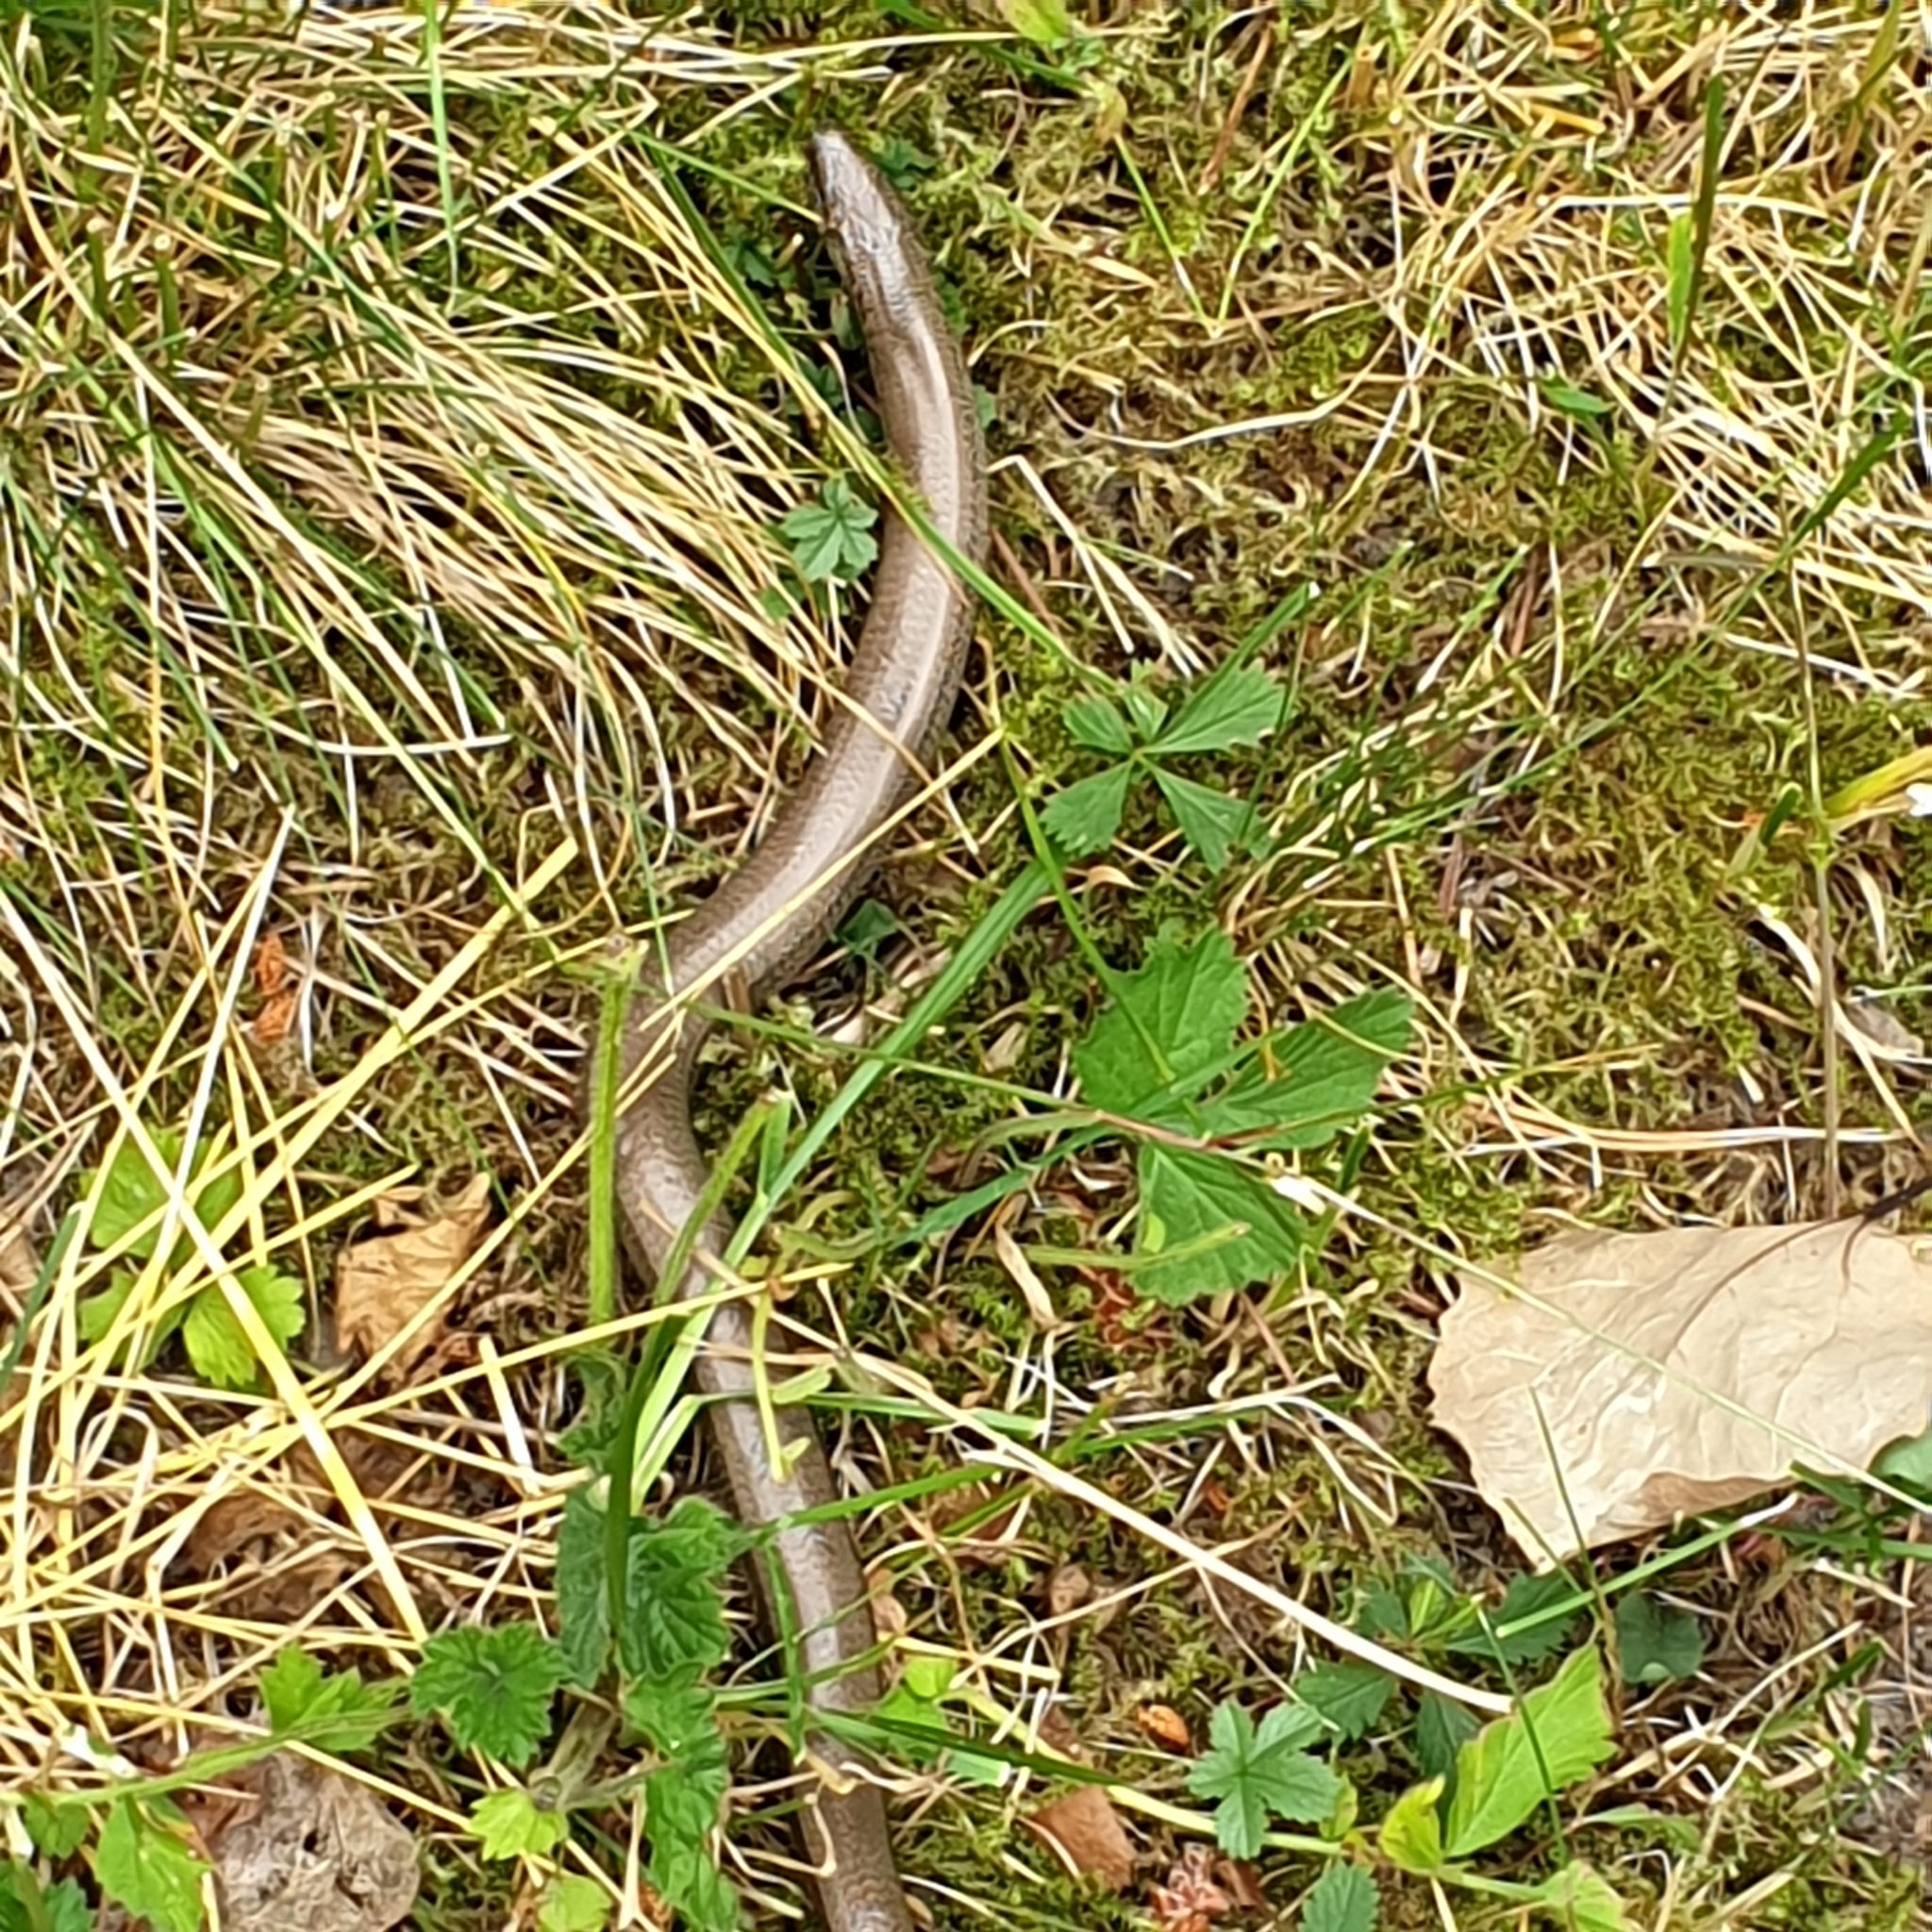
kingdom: Animalia
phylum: Chordata
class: Squamata
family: Anguidae
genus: Anguis
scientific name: Anguis fragilis
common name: Slow worm
